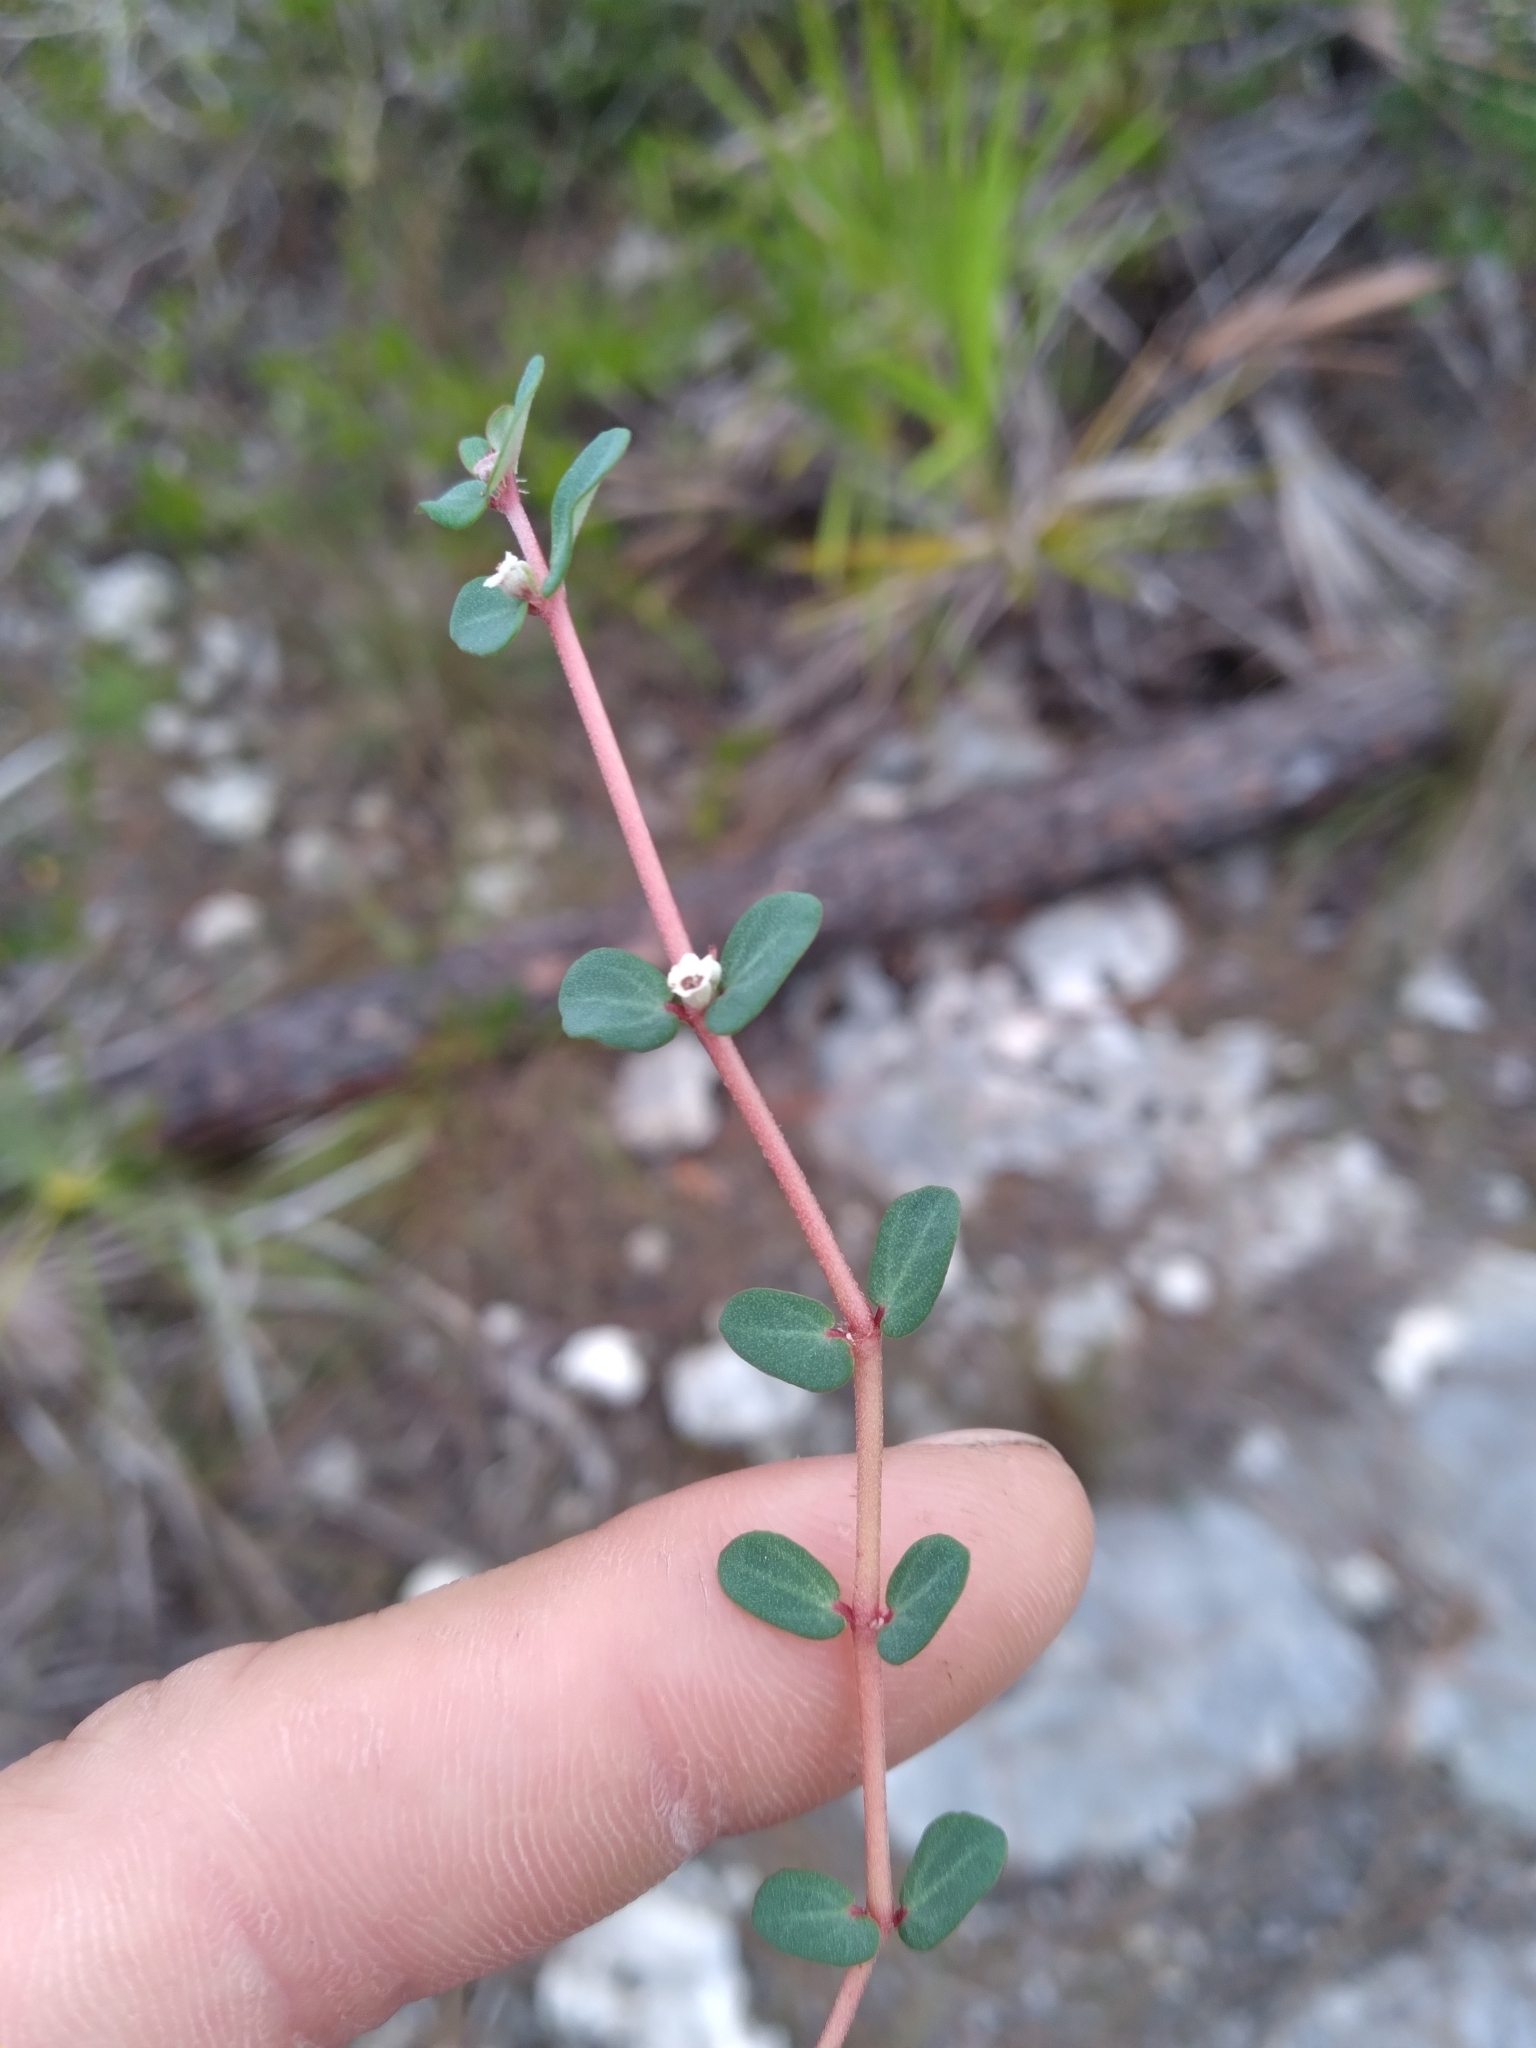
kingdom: Plantae
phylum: Tracheophyta
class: Magnoliopsida
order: Malpighiales
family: Euphorbiaceae
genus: Euphorbia
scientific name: Euphorbia pergamena
